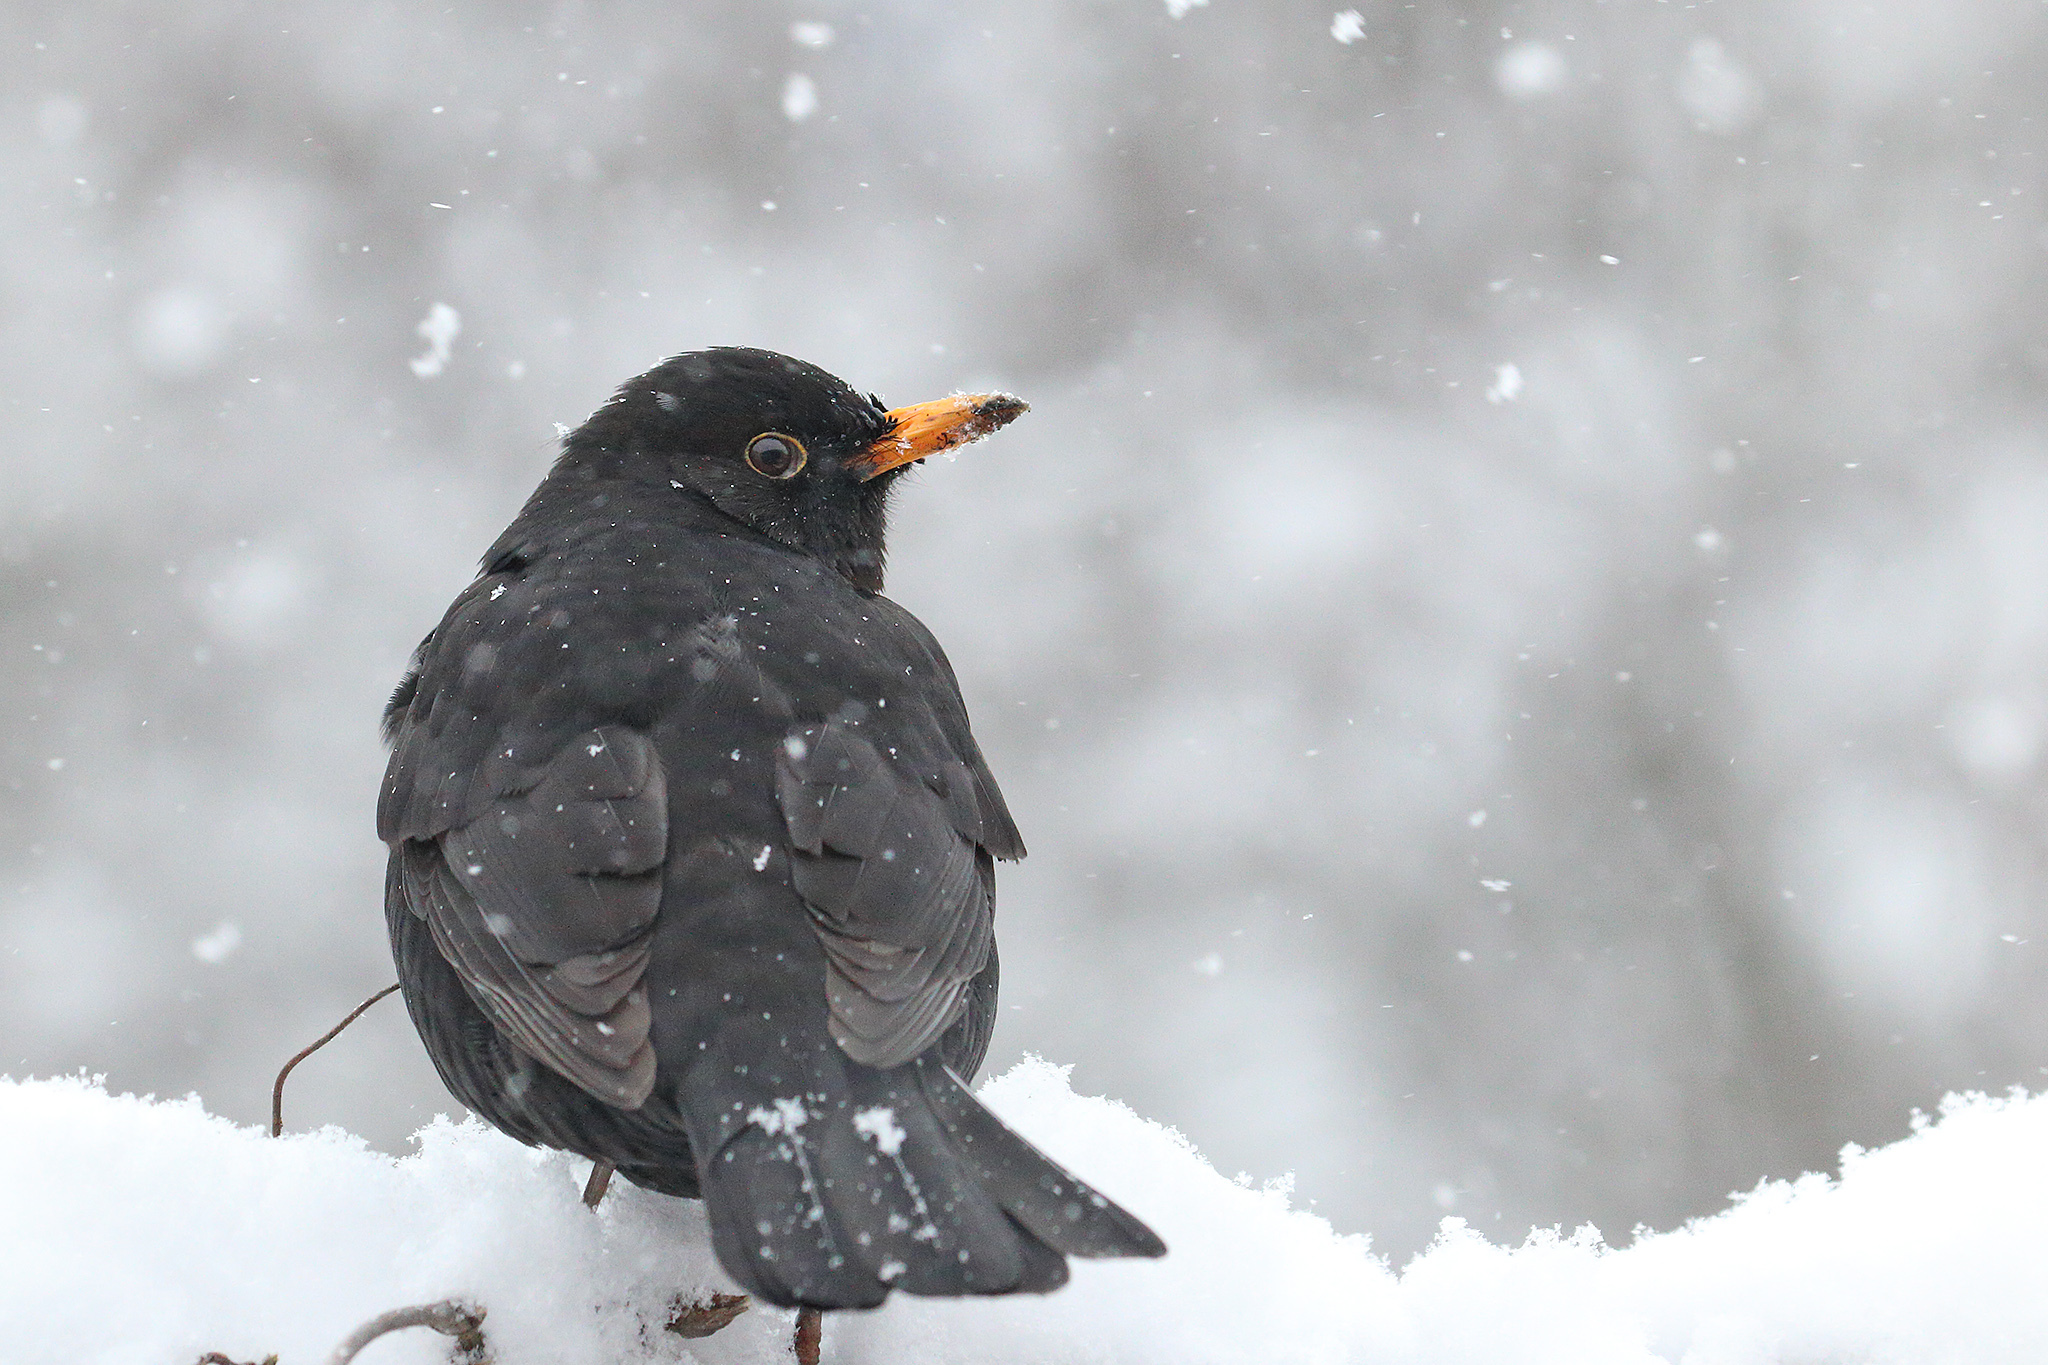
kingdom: Animalia
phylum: Chordata
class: Aves
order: Passeriformes
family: Turdidae
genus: Turdus
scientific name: Turdus merula
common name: Common blackbird
